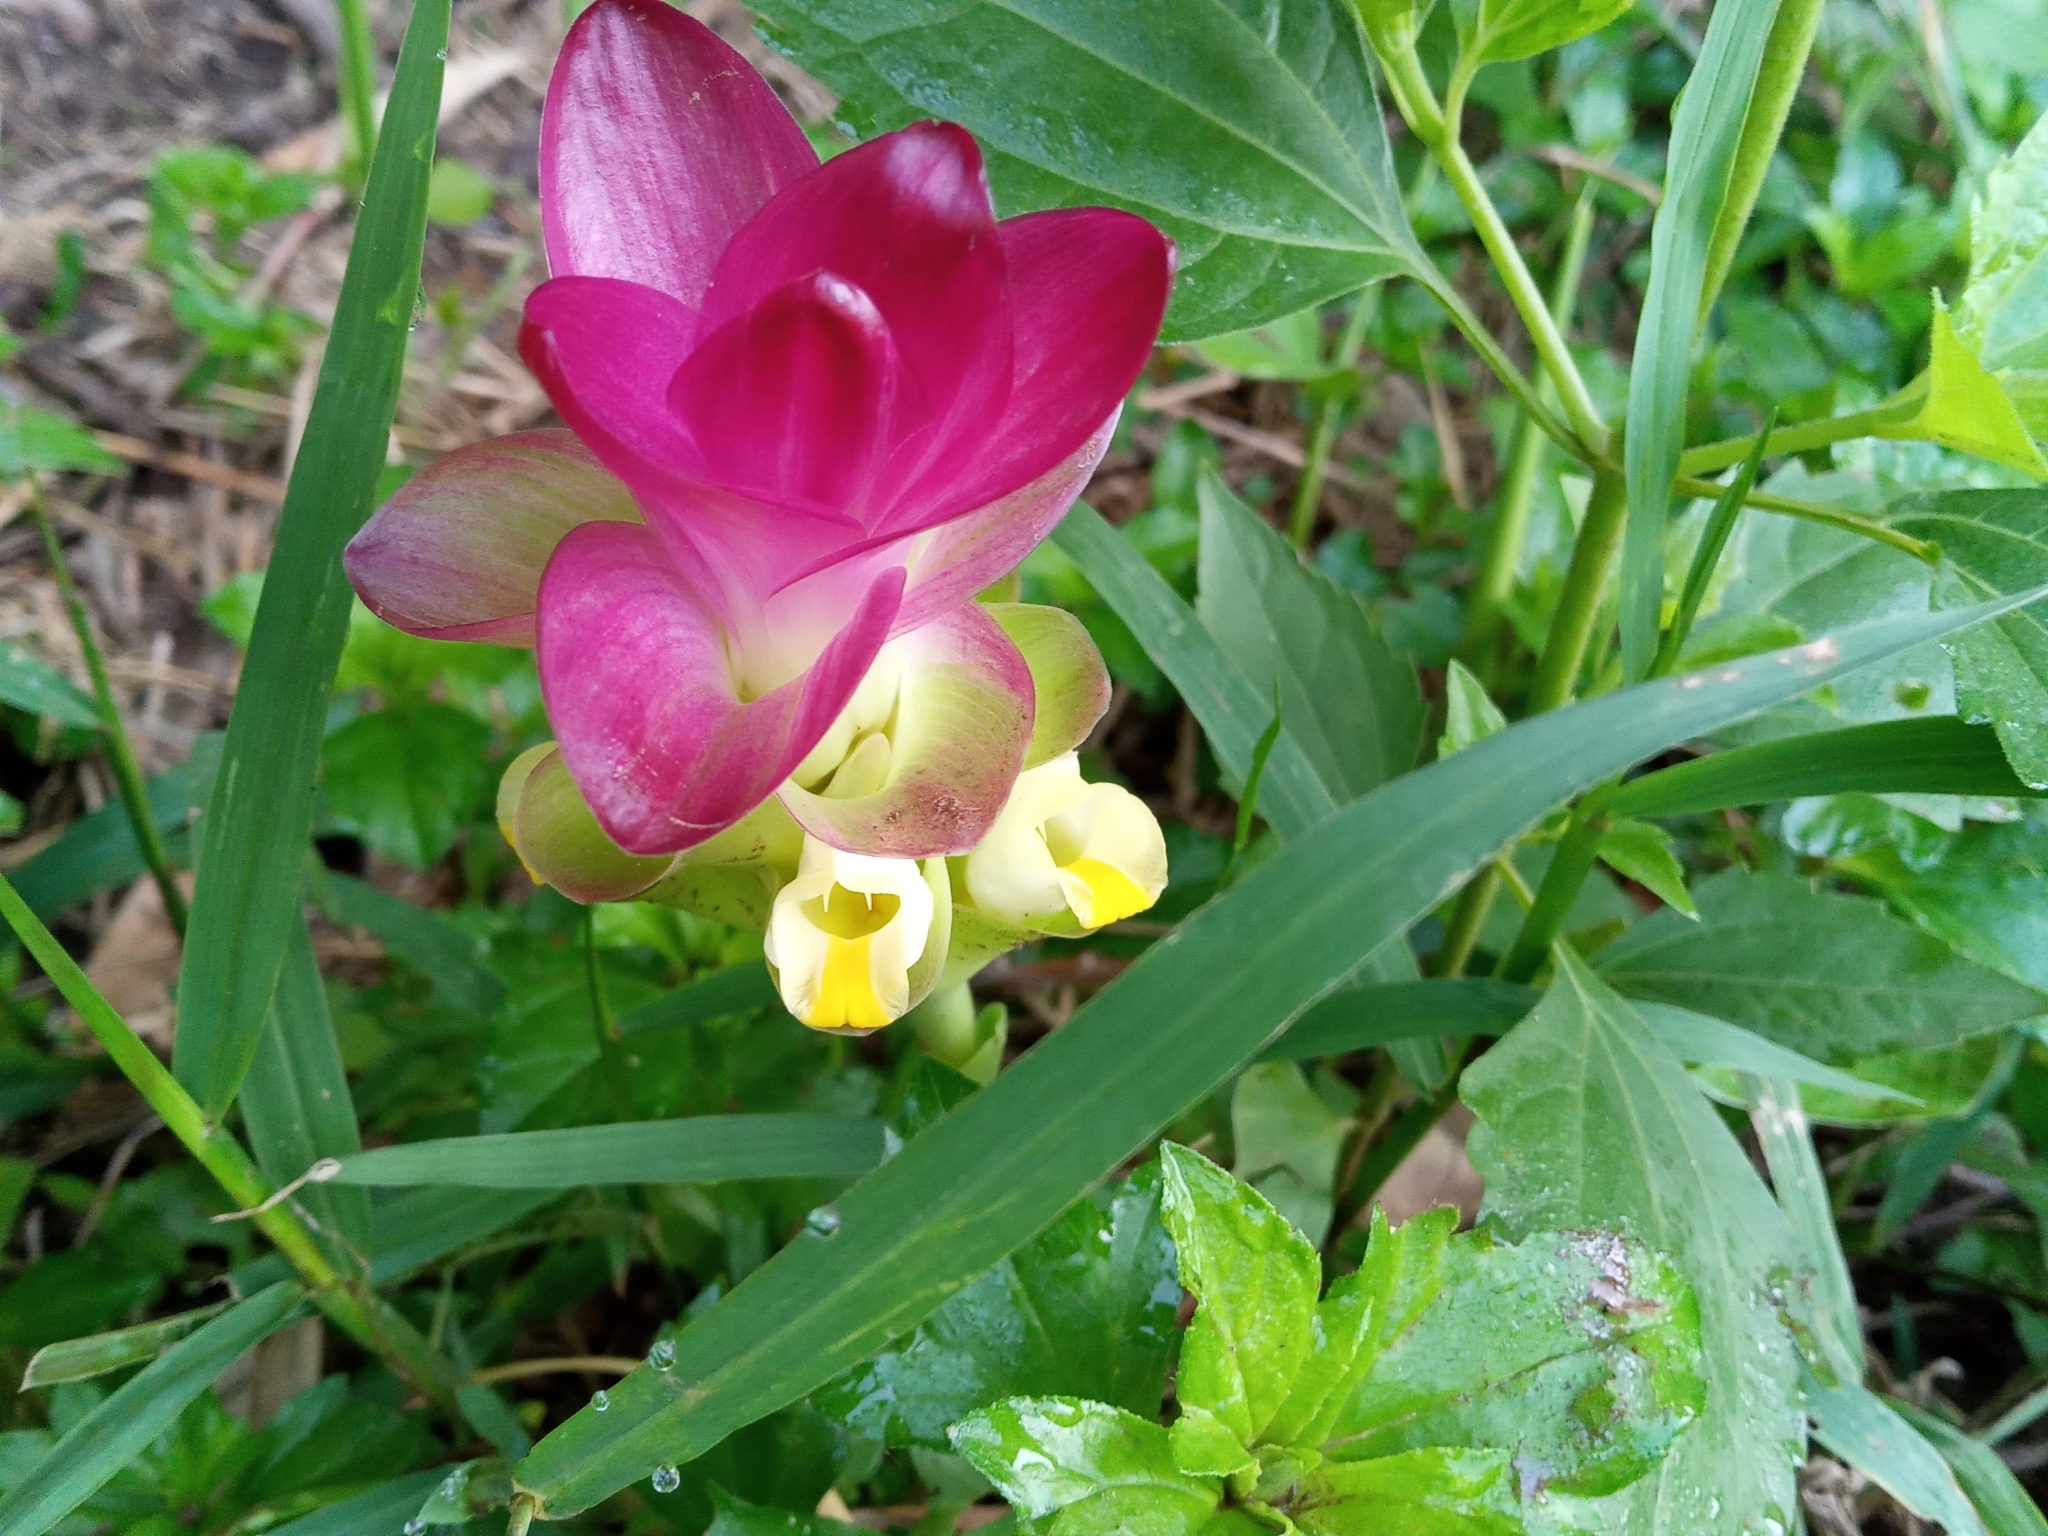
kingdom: Plantae
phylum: Tracheophyta
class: Liliopsida
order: Zingiberales
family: Zingiberaceae
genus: Curcuma
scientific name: Curcuma zedoaria
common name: Zedoary
